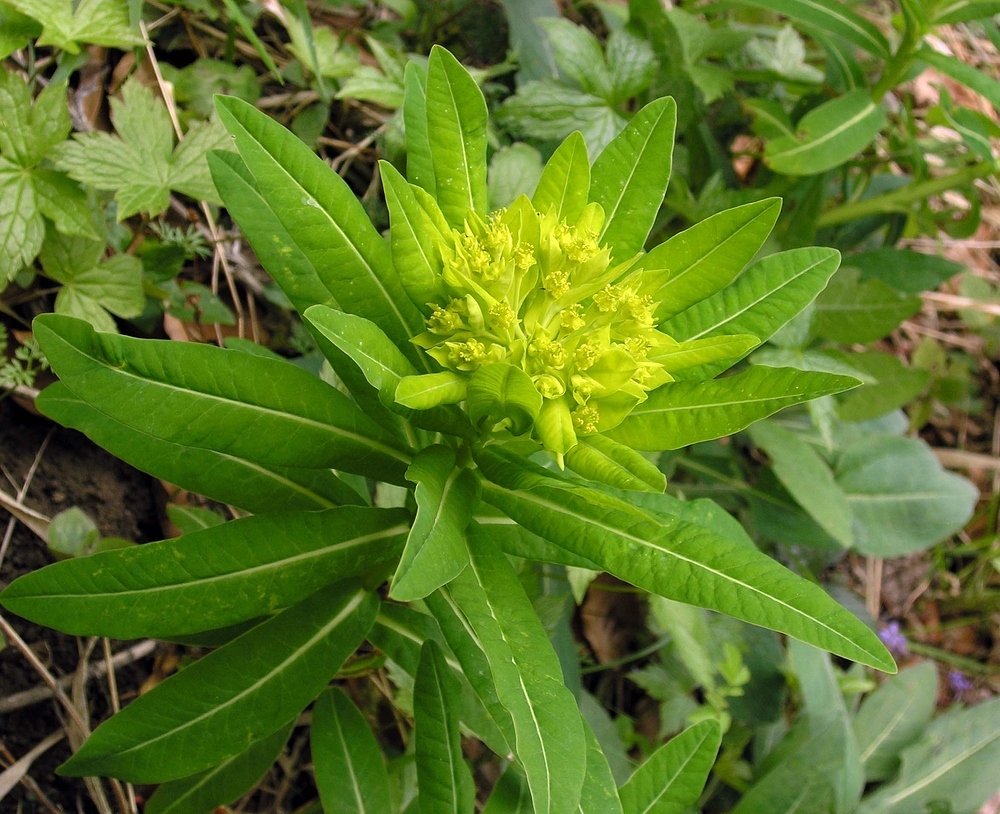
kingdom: Plantae
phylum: Tracheophyta
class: Magnoliopsida
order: Malpighiales
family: Euphorbiaceae
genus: Euphorbia
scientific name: Euphorbia hyberna
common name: Irish spurge
